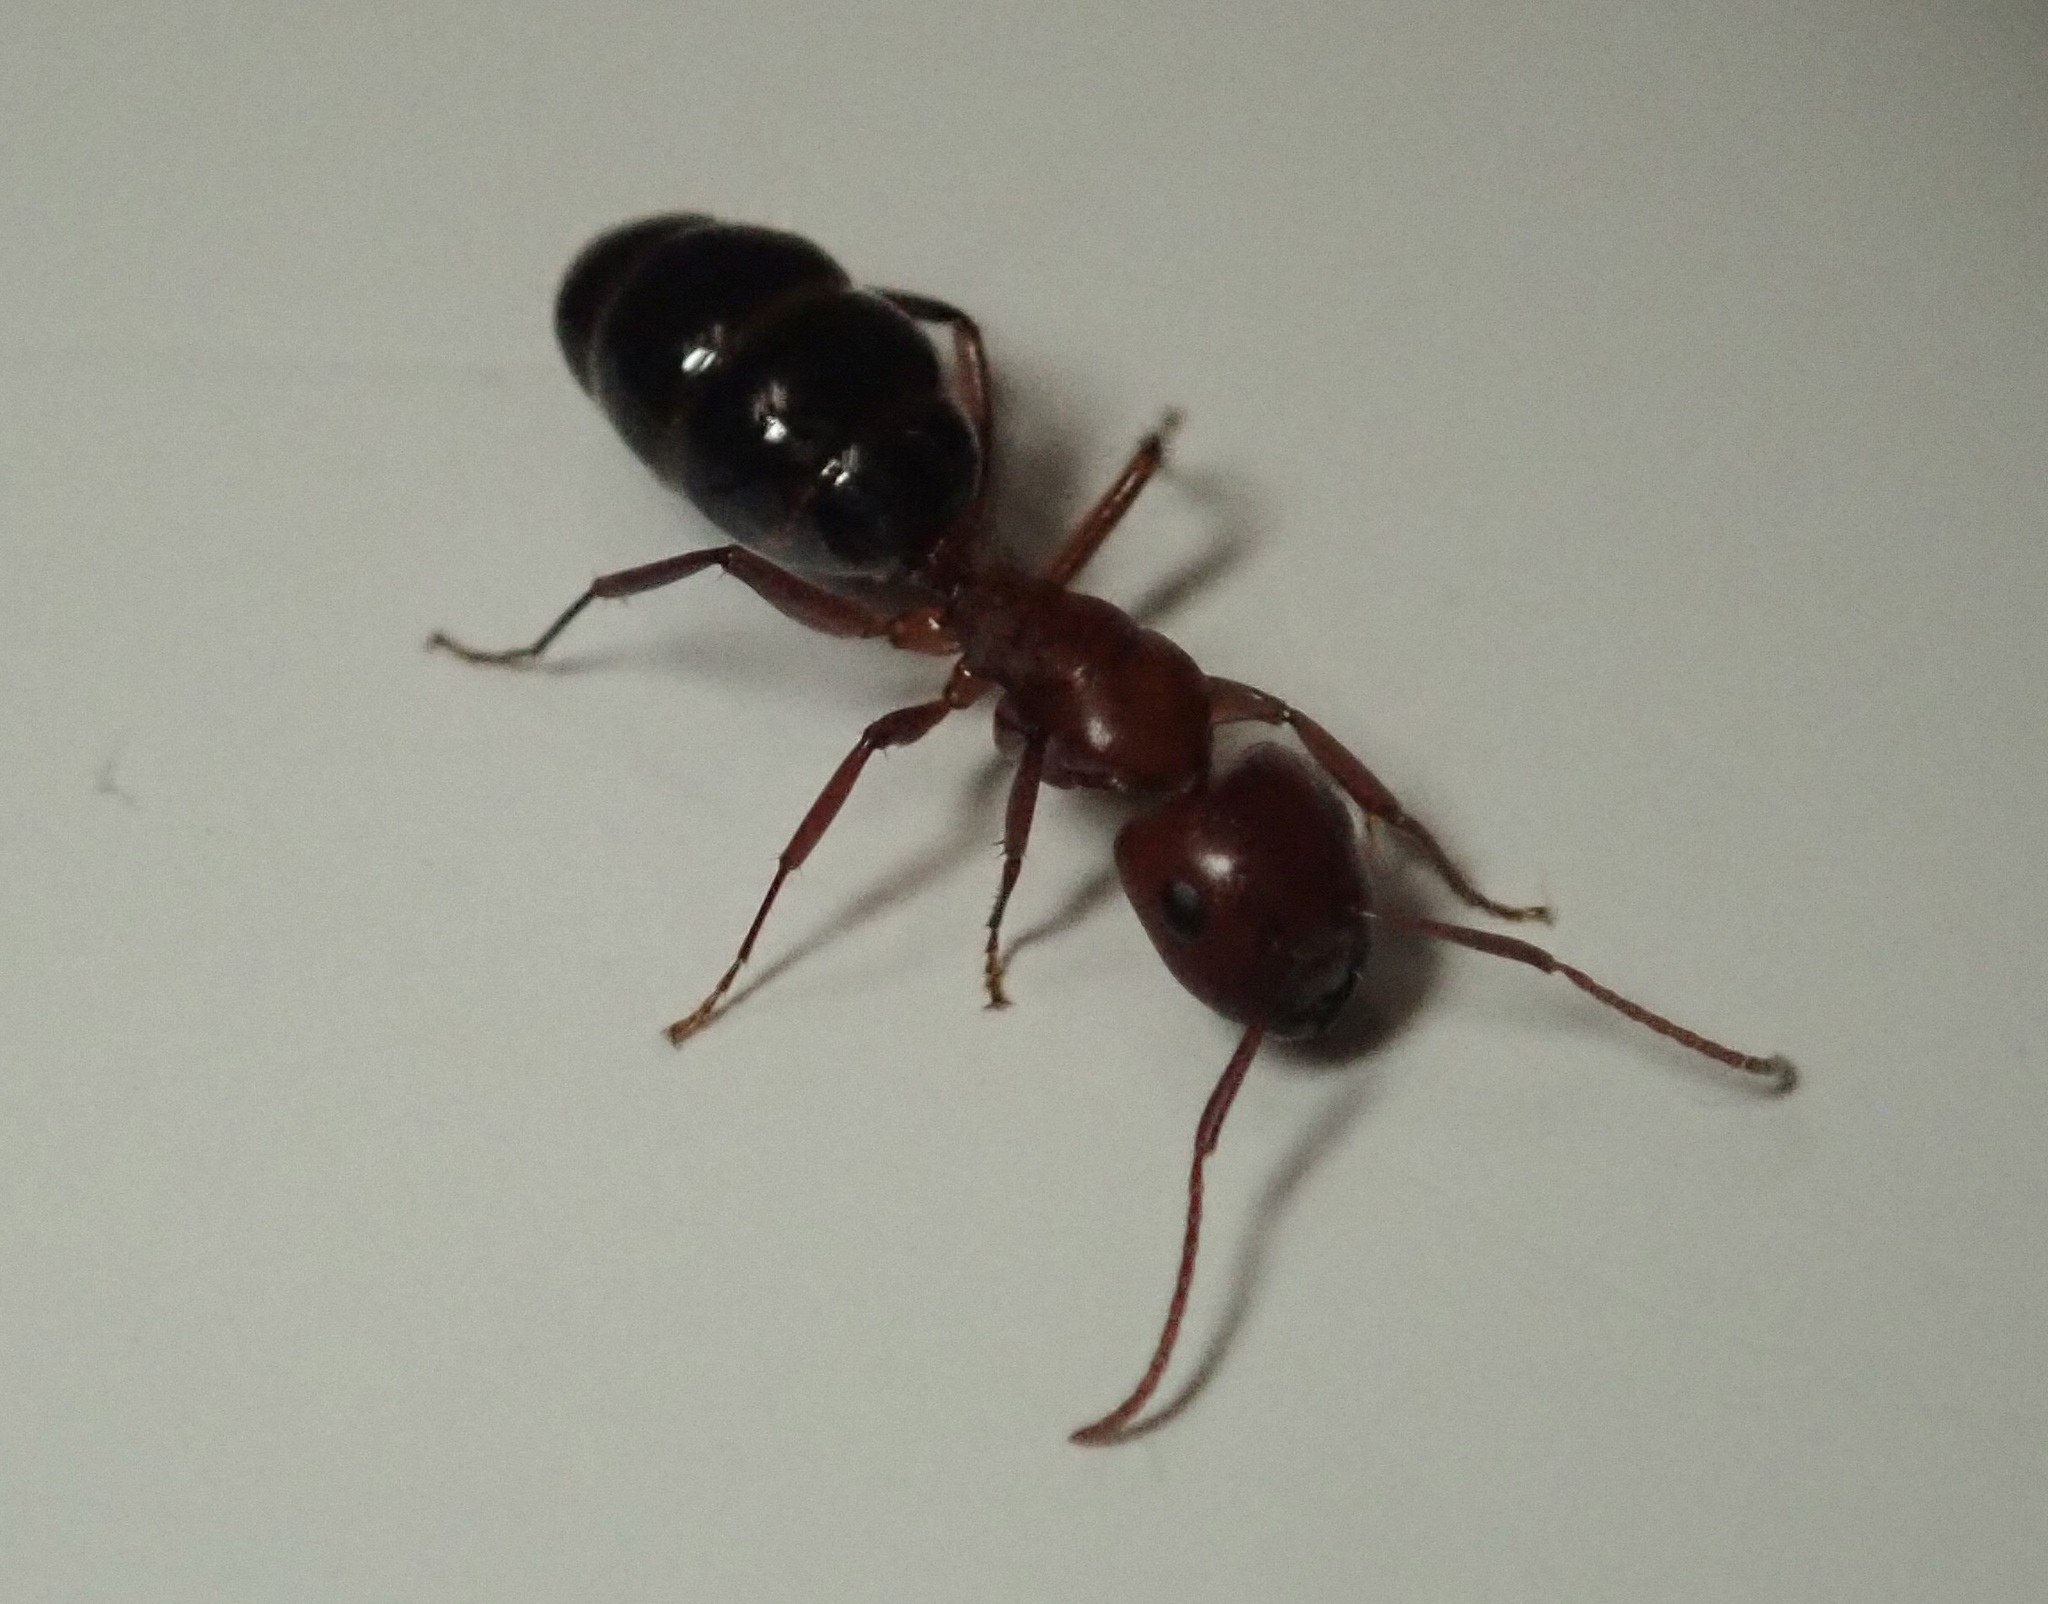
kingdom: Animalia
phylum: Arthropoda
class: Insecta
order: Hymenoptera
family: Formicidae
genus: Camponotus
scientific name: Camponotus sayi
